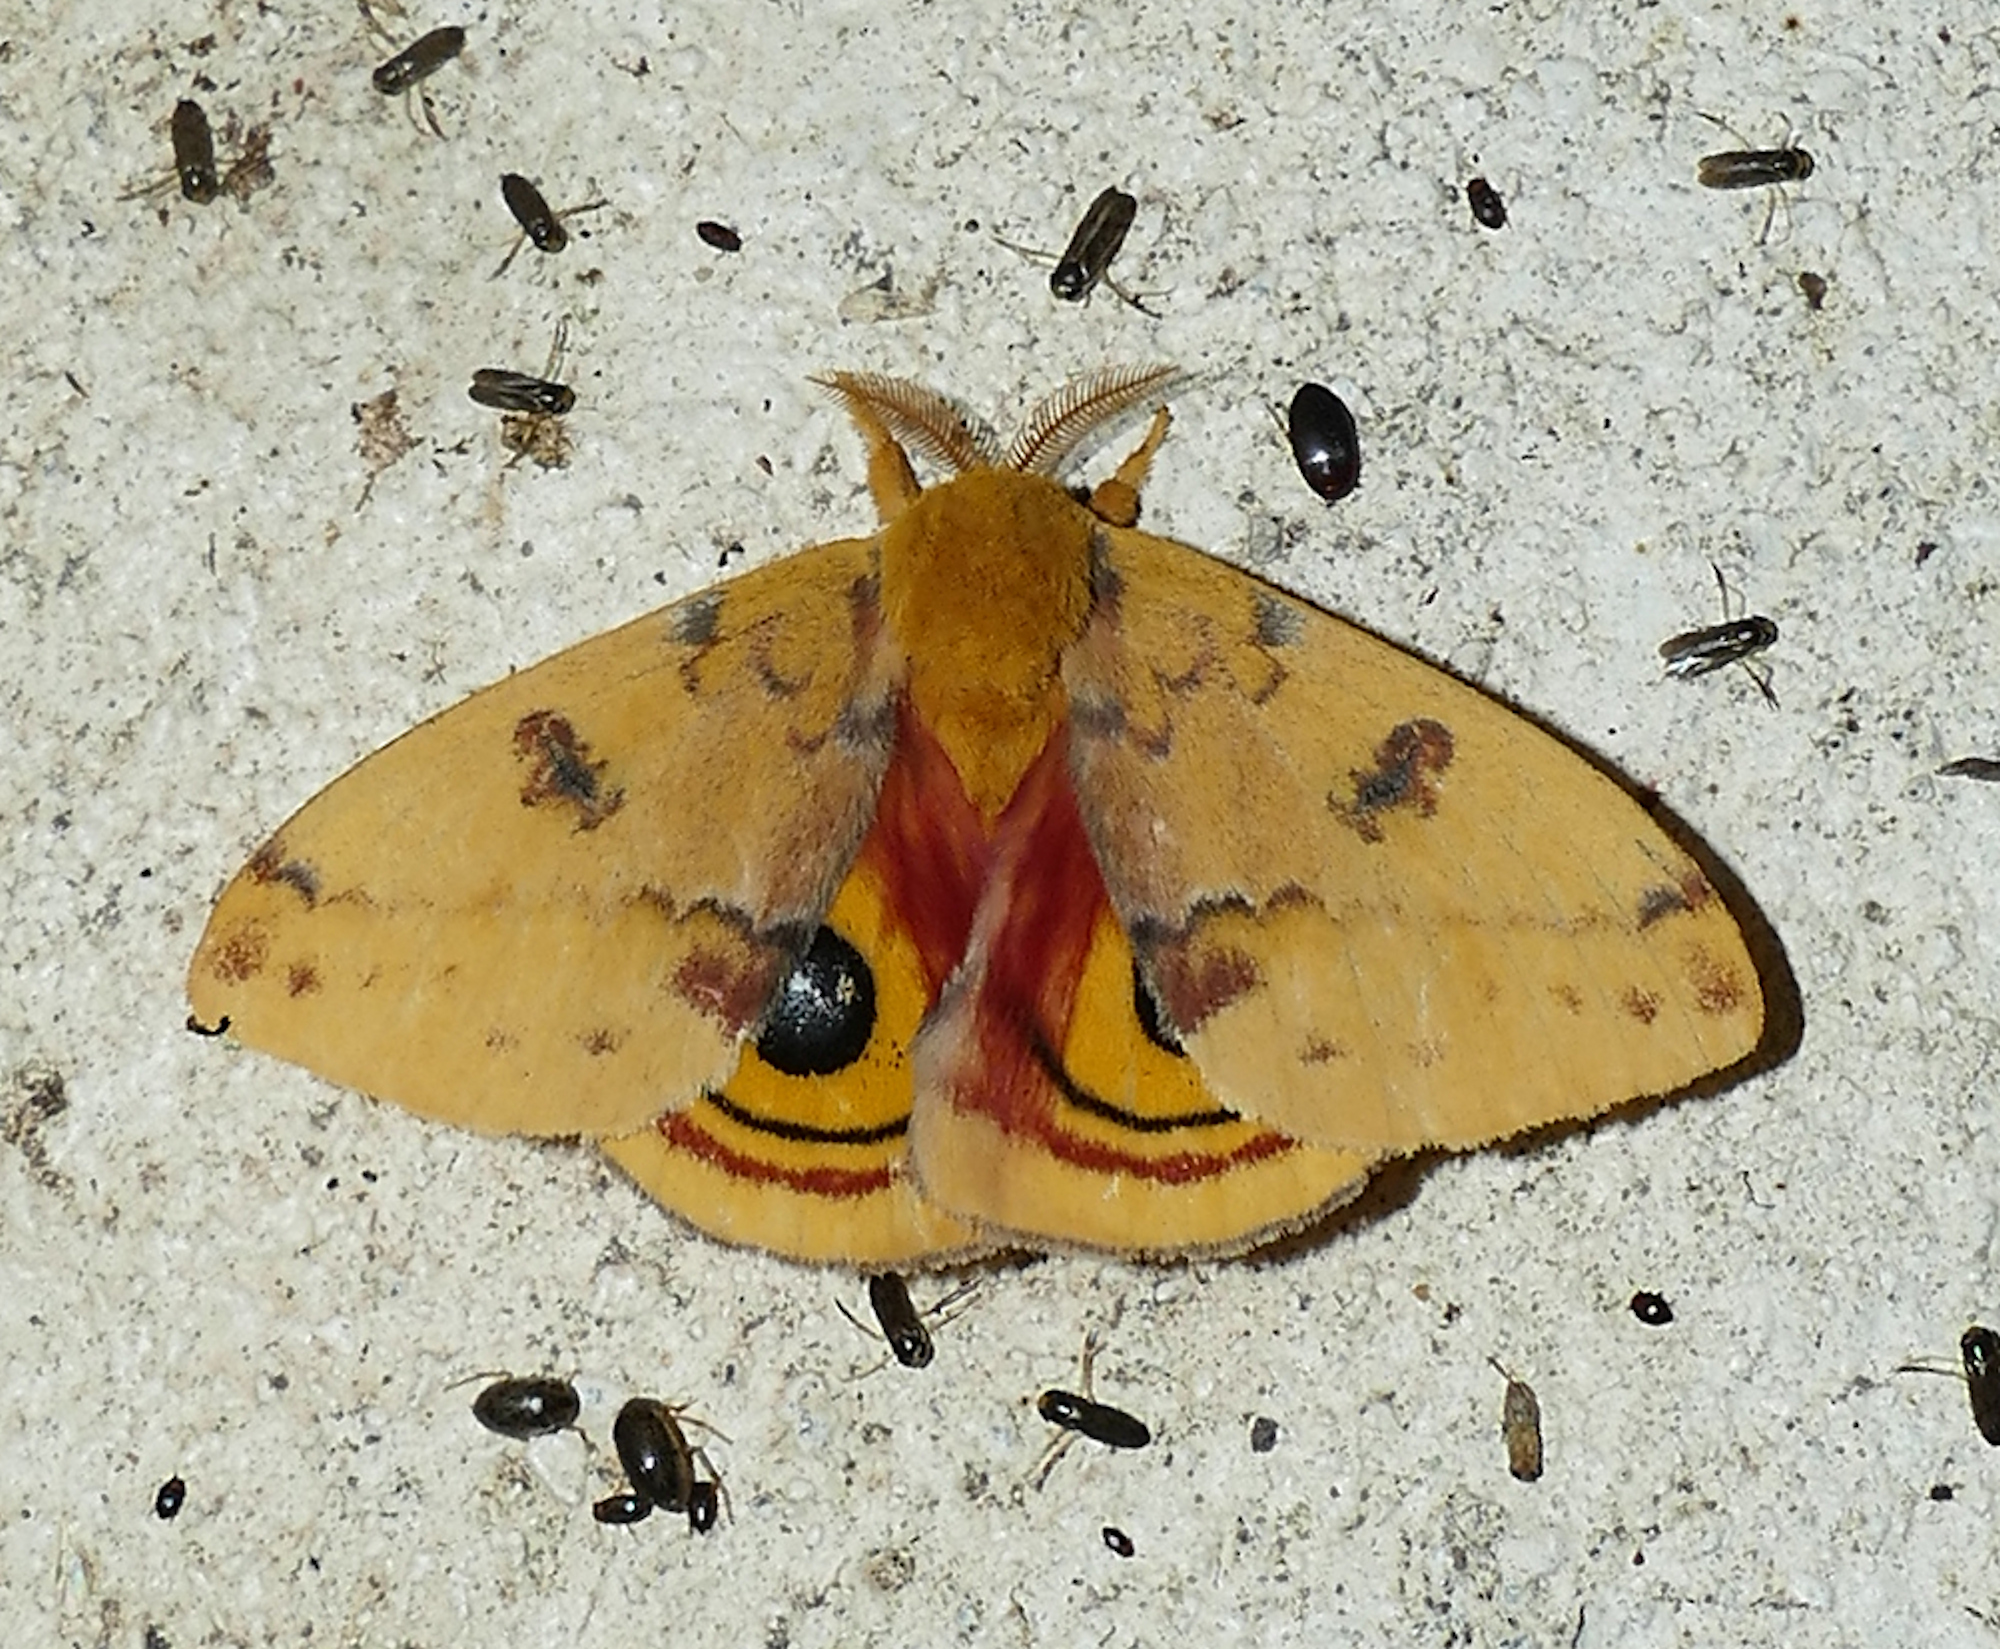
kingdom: Animalia
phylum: Arthropoda
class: Insecta
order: Lepidoptera
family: Saturniidae
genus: Automeris
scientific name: Automeris io
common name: Io moth
